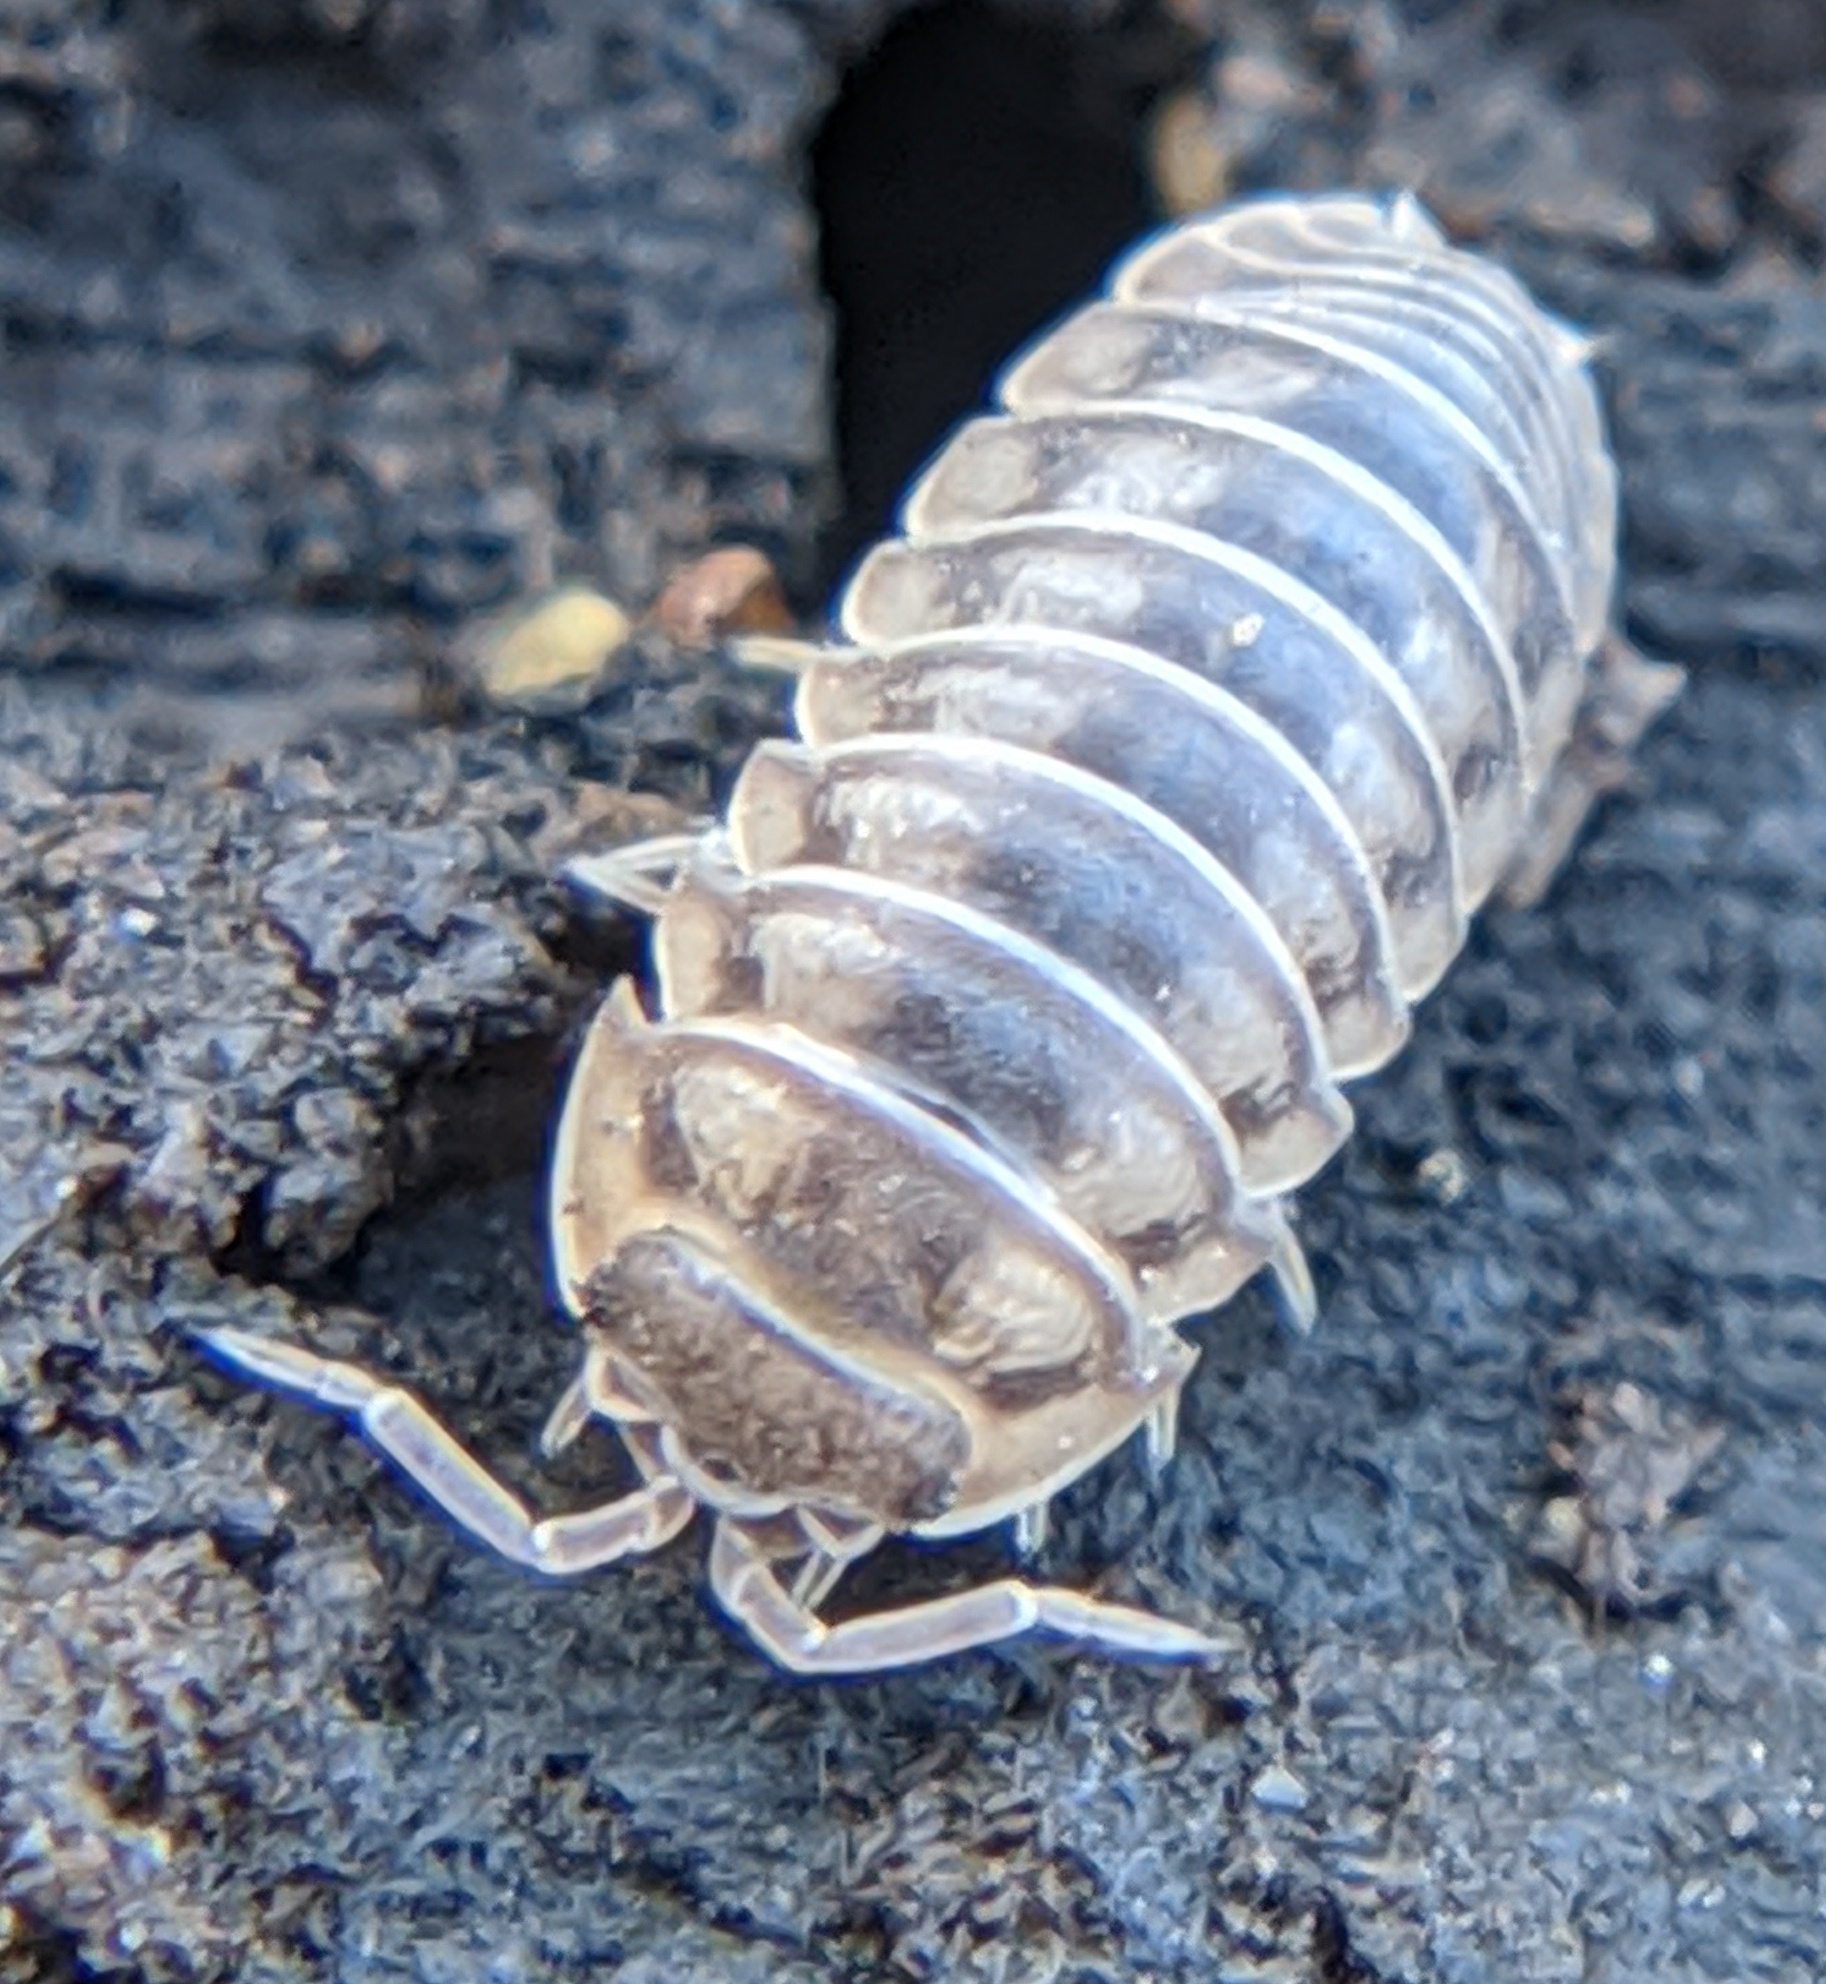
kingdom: Animalia
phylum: Arthropoda
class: Malacostraca
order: Isopoda
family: Armadillidiidae
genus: Armadillidium
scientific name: Armadillidium nasatum
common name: Isopod
